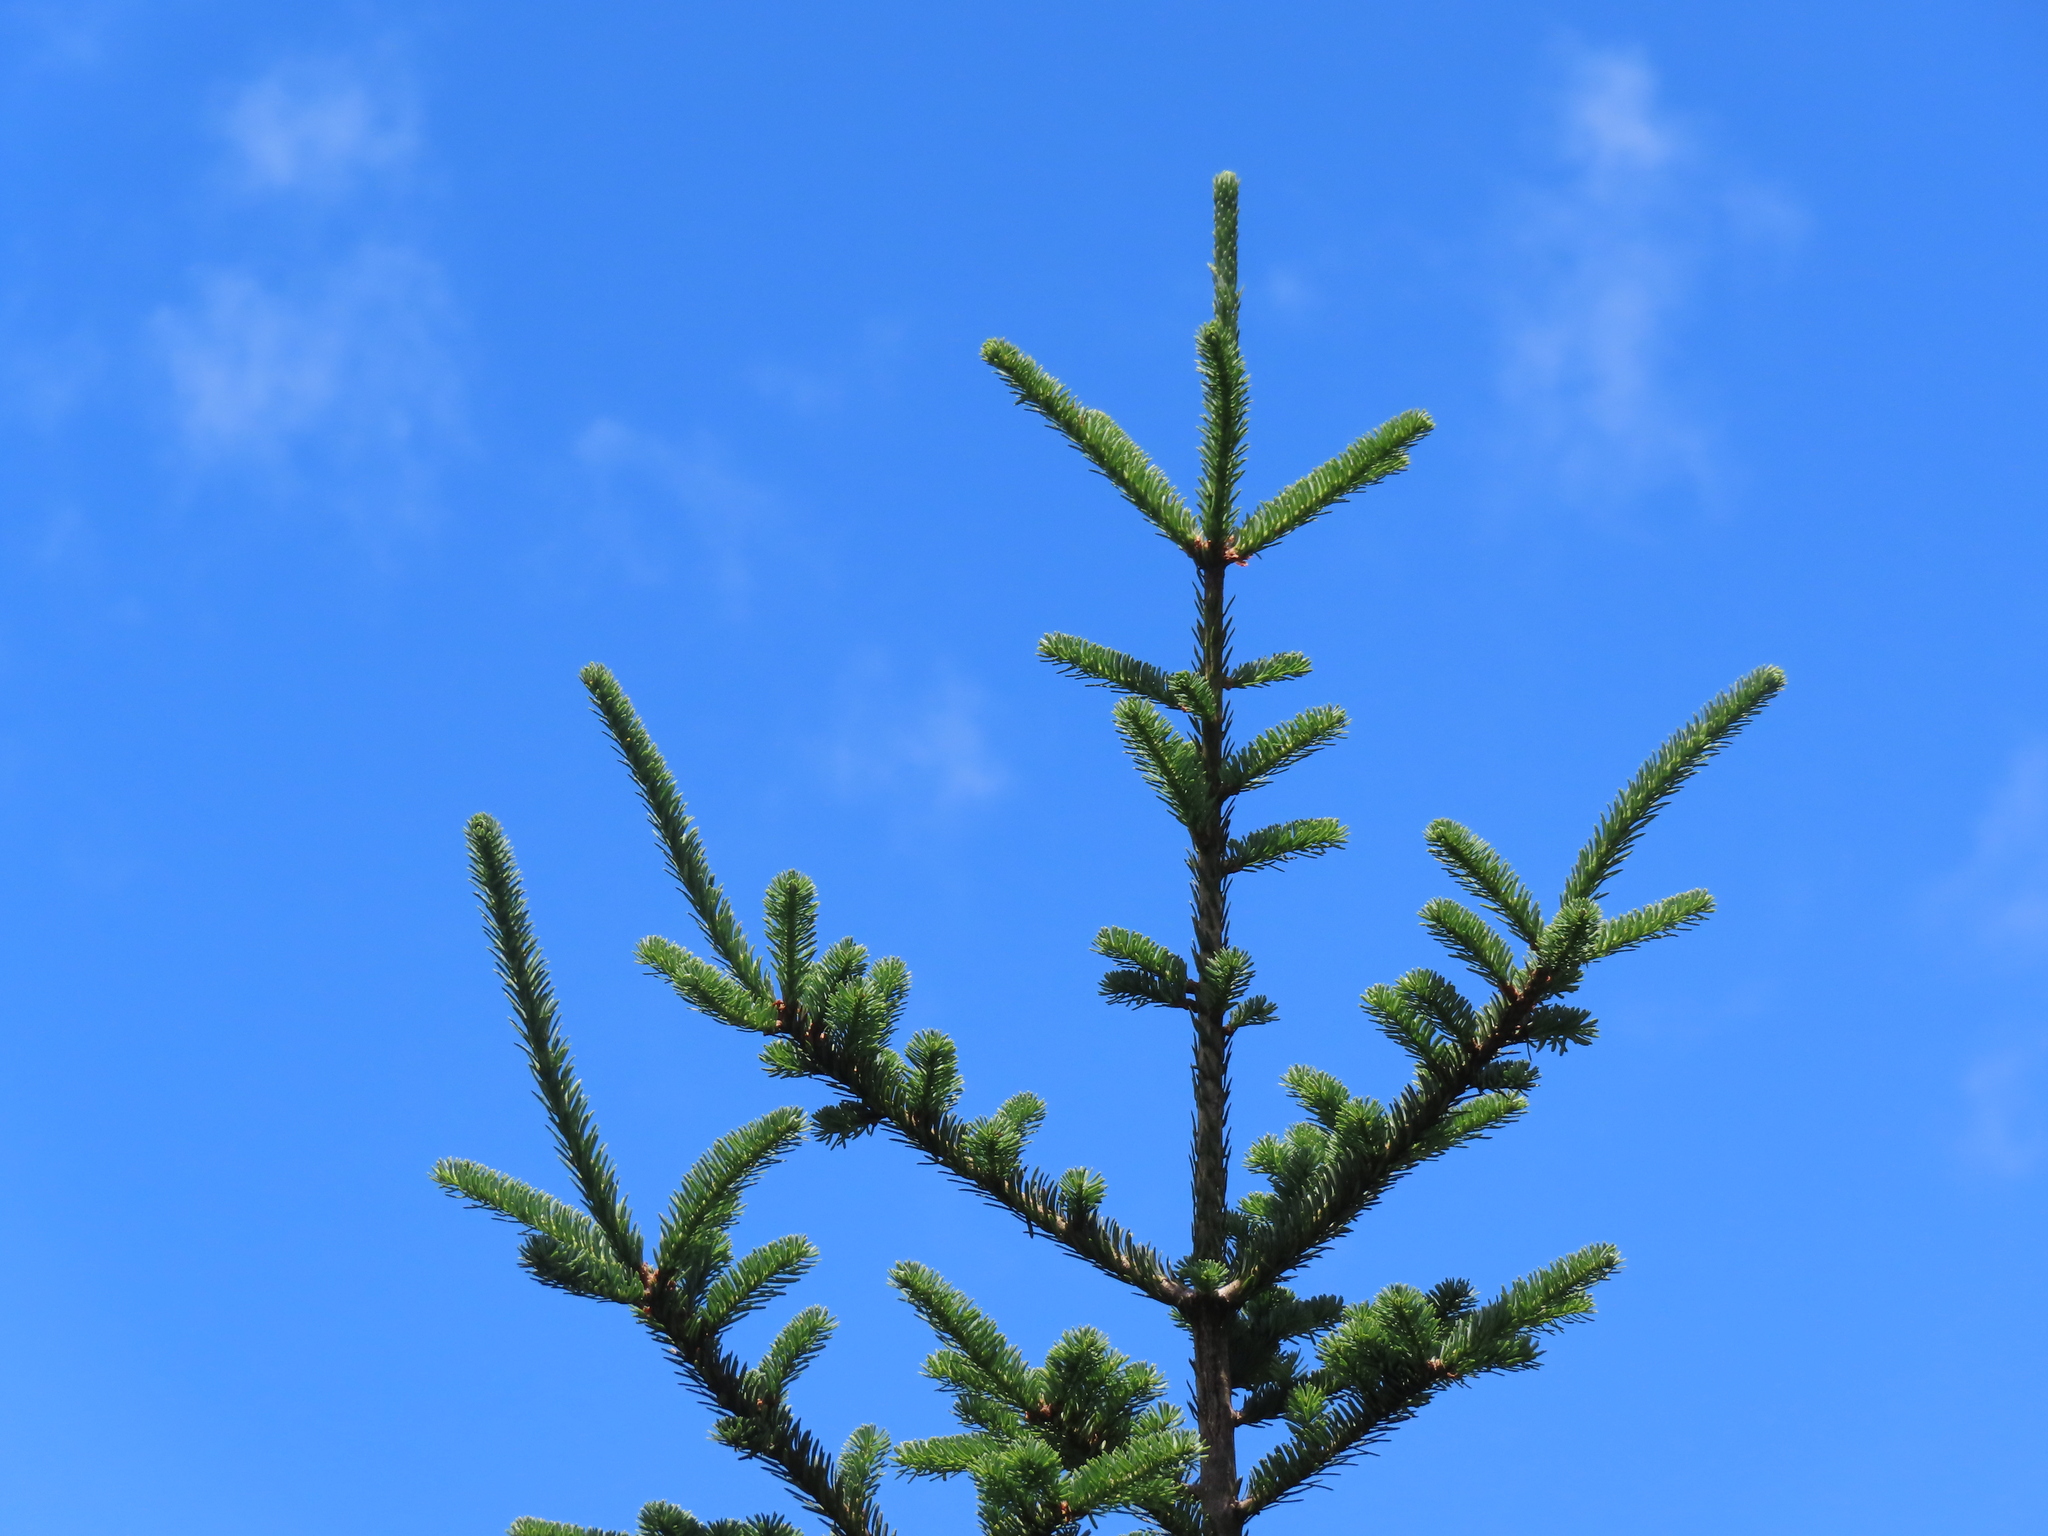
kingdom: Plantae
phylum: Tracheophyta
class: Pinopsida
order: Pinales
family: Pinaceae
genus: Abies
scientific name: Abies fraseri
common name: Fraser fir
